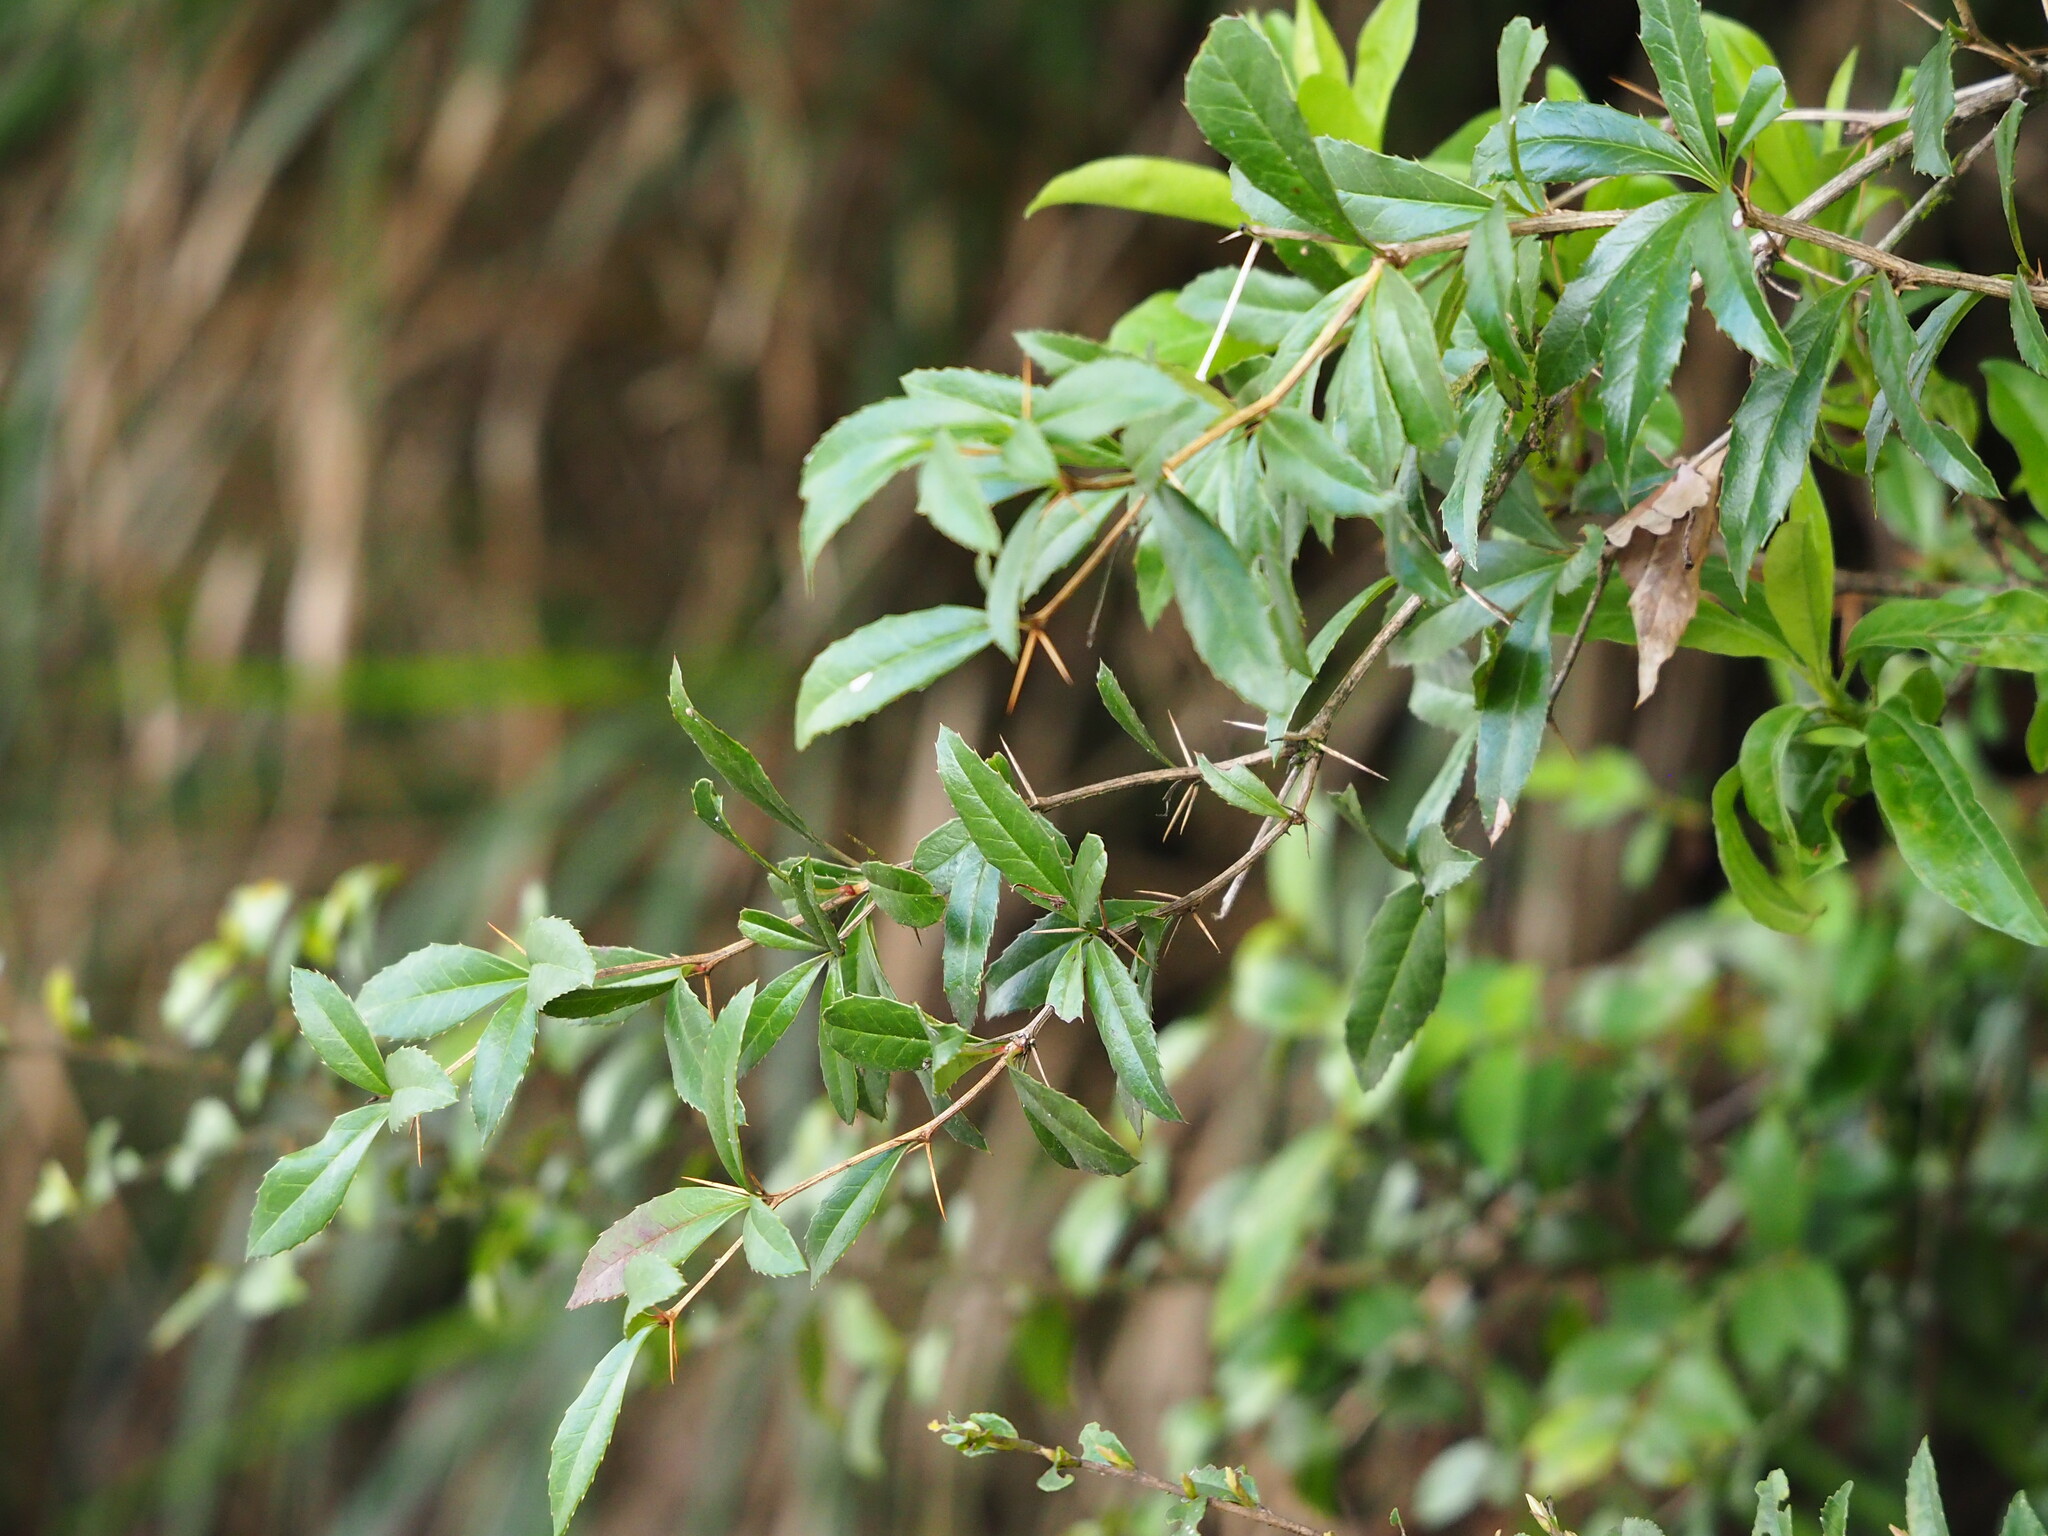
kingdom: Plantae
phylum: Tracheophyta
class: Magnoliopsida
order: Ranunculales
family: Berberidaceae
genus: Berberis
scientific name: Berberis kawakamii
